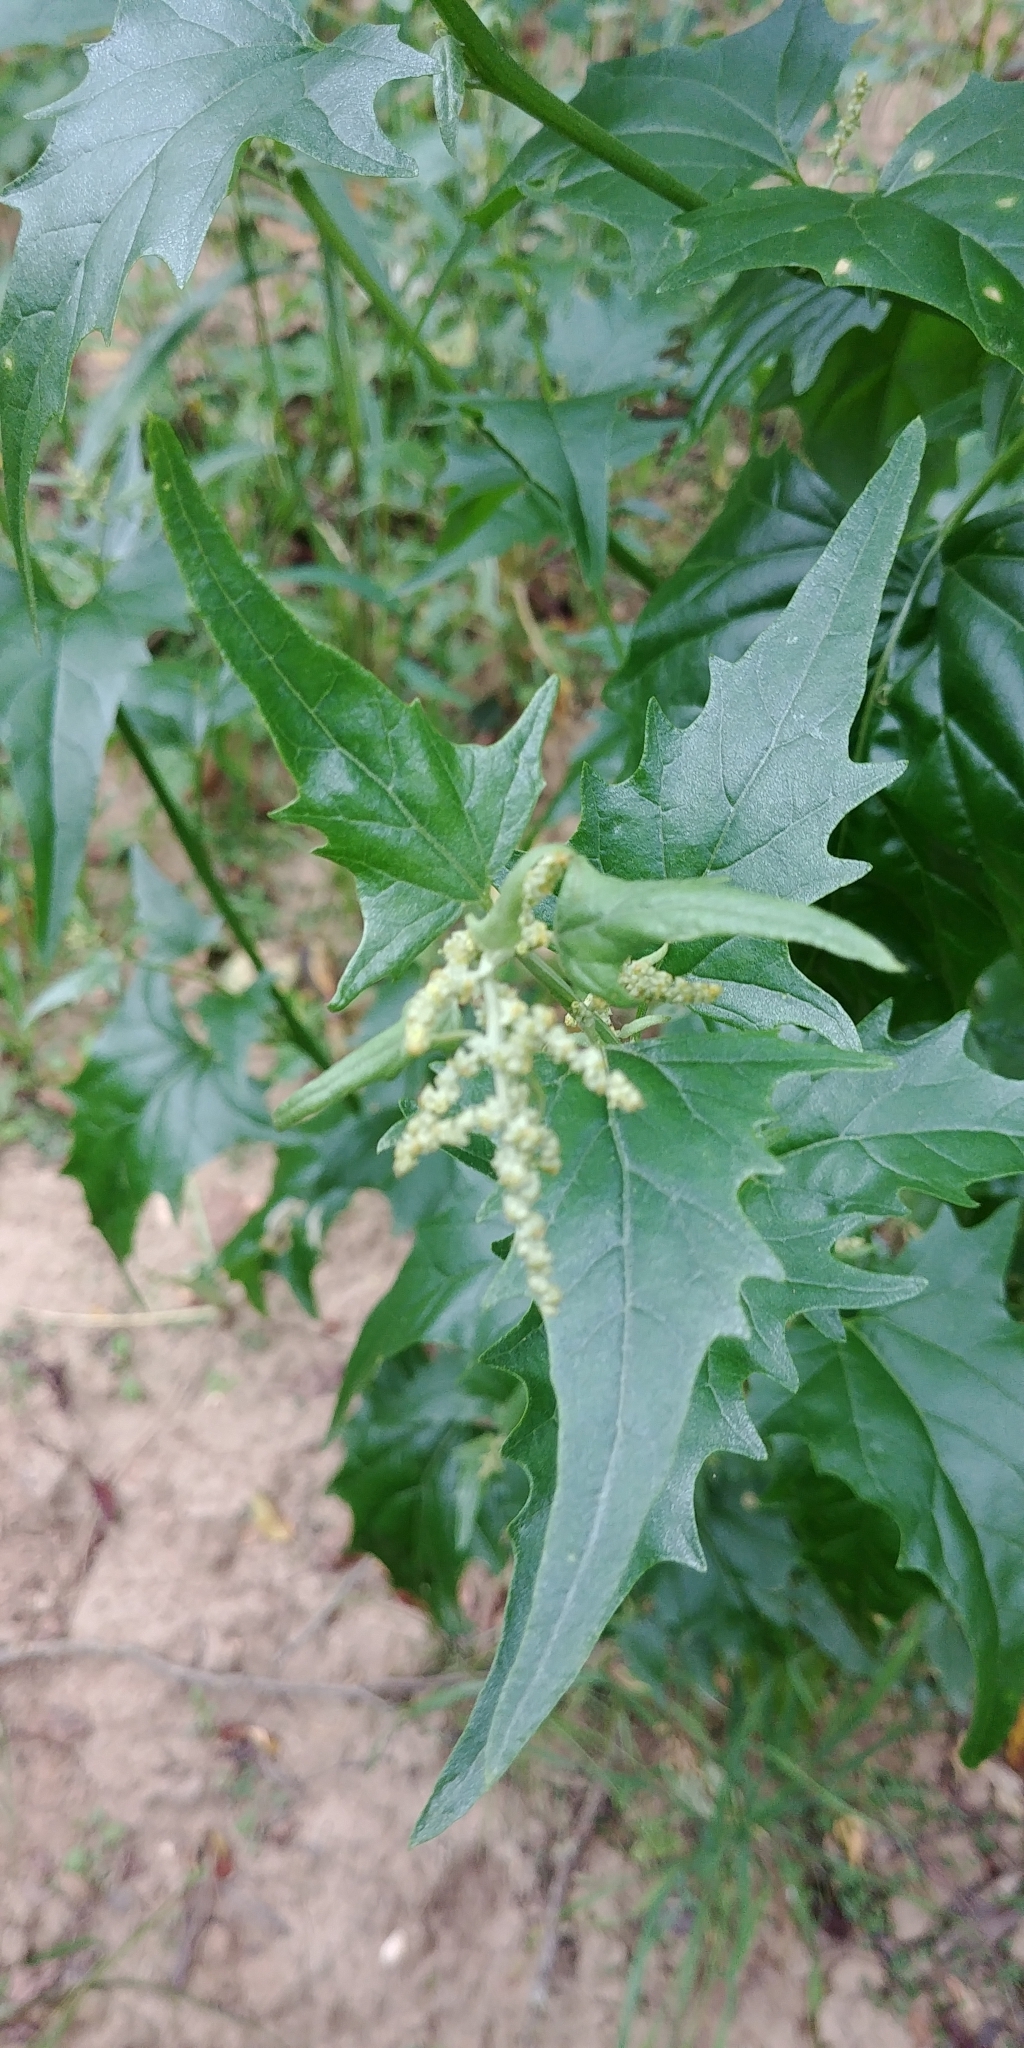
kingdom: Plantae
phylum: Tracheophyta
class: Magnoliopsida
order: Caryophyllales
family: Amaranthaceae
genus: Atriplex
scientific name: Atriplex sagittata
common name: Purple orache
